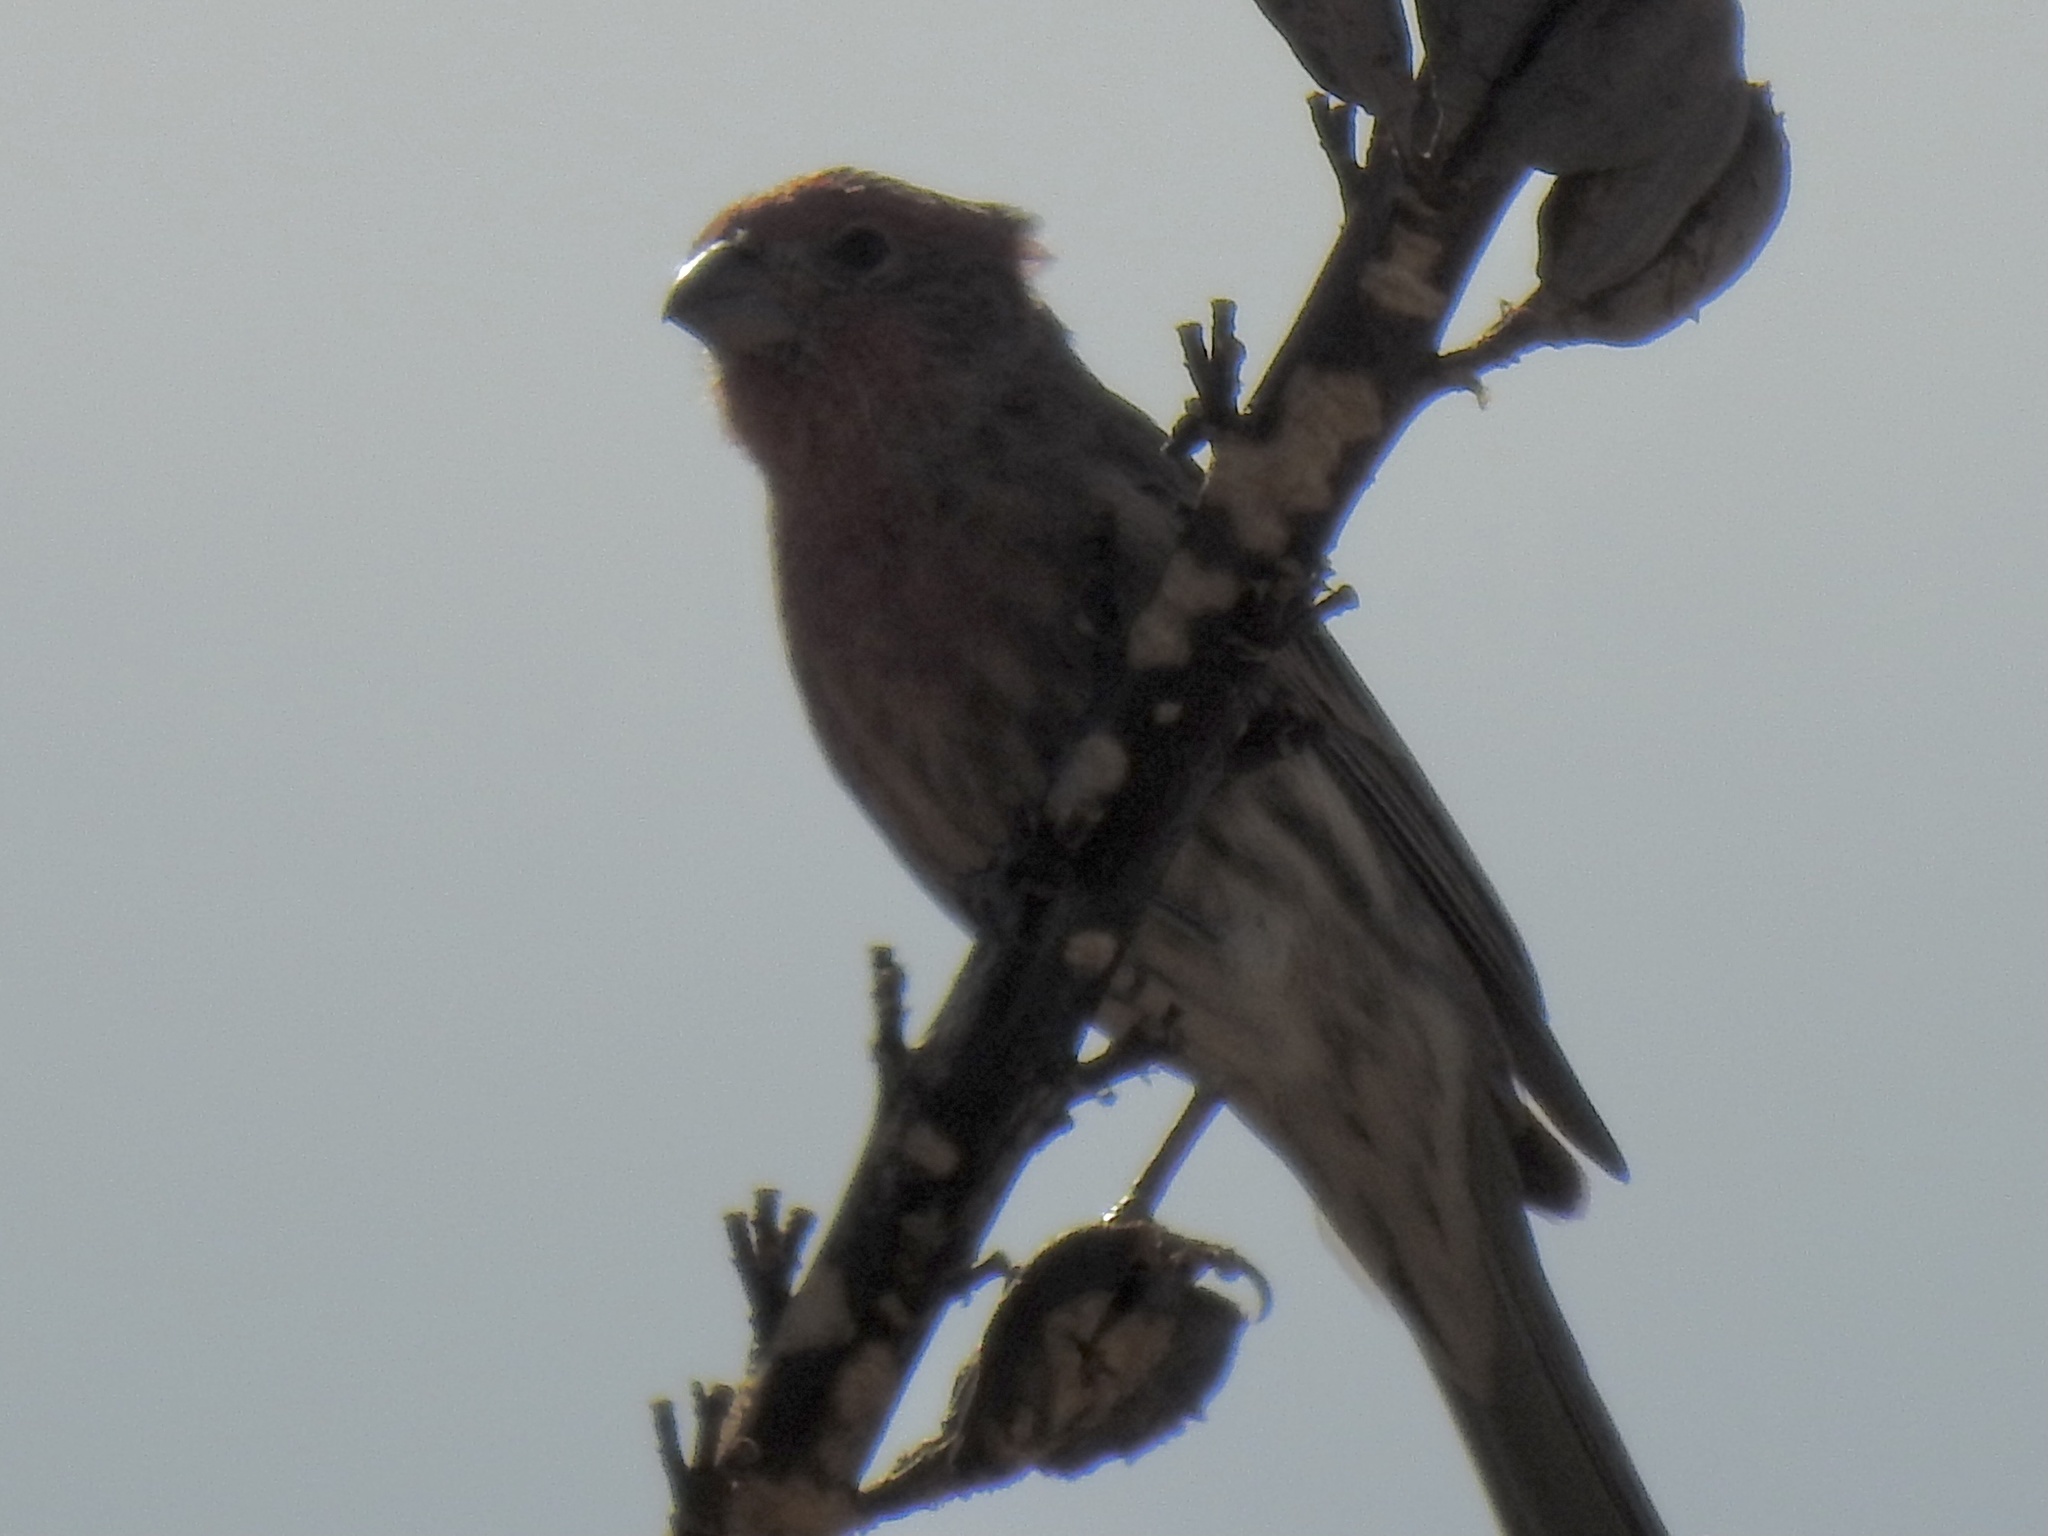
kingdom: Animalia
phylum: Chordata
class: Aves
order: Passeriformes
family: Fringillidae
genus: Haemorhous
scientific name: Haemorhous mexicanus
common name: House finch
